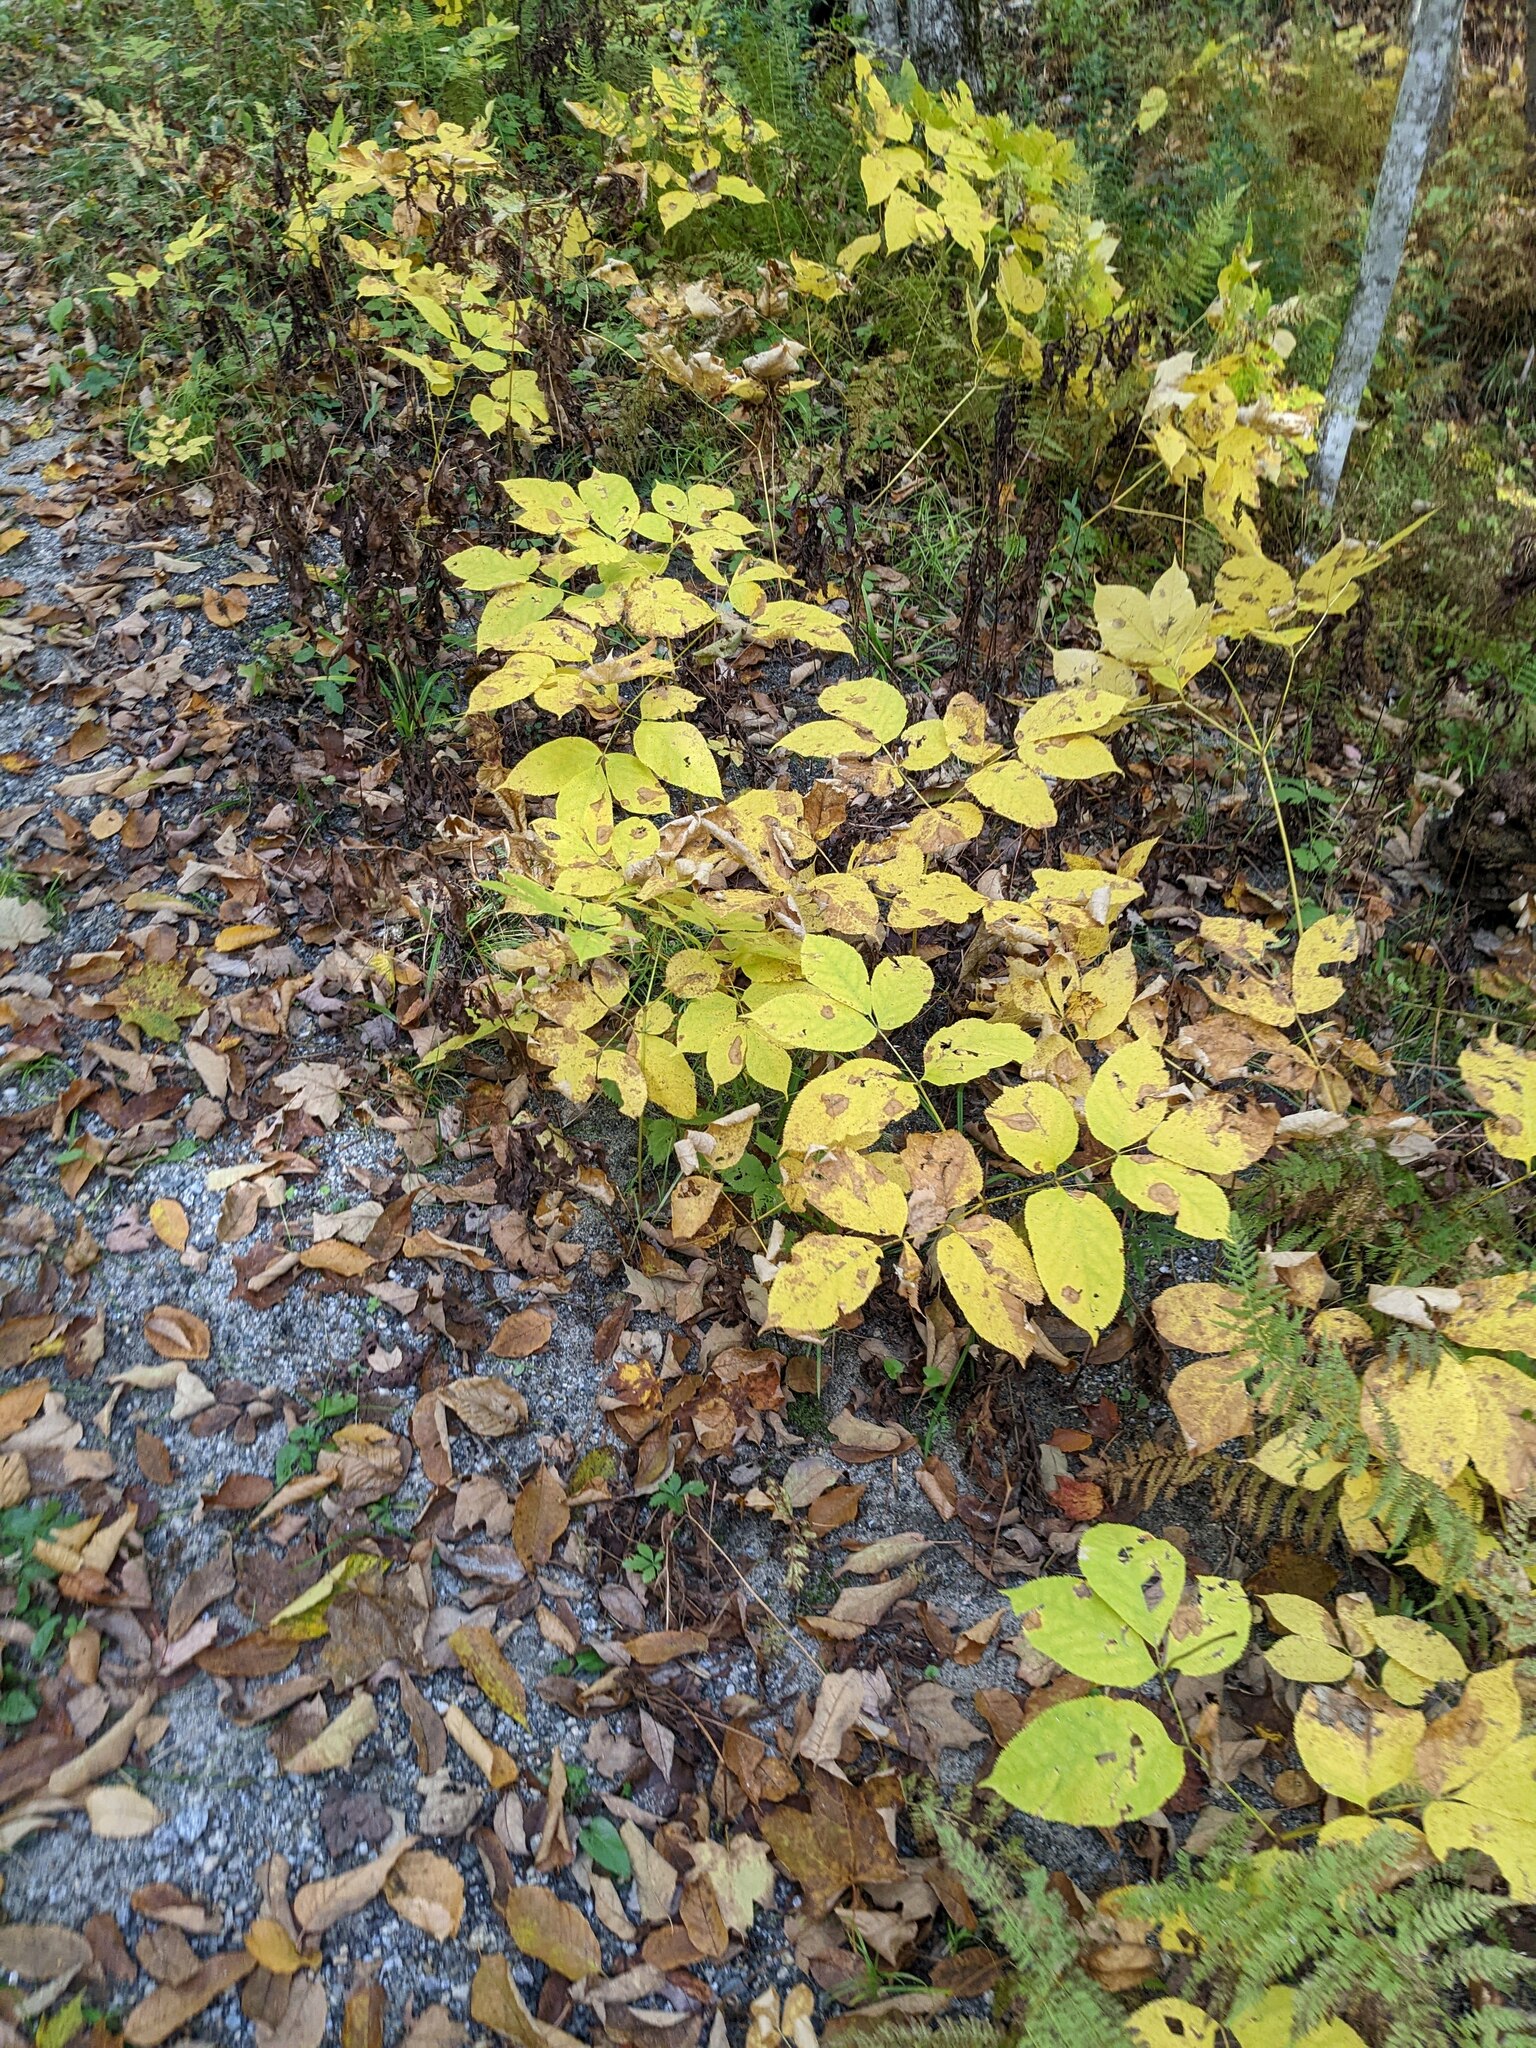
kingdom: Plantae
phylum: Tracheophyta
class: Magnoliopsida
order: Apiales
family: Araliaceae
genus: Aralia
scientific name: Aralia nudicaulis
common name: Wild sarsaparilla
